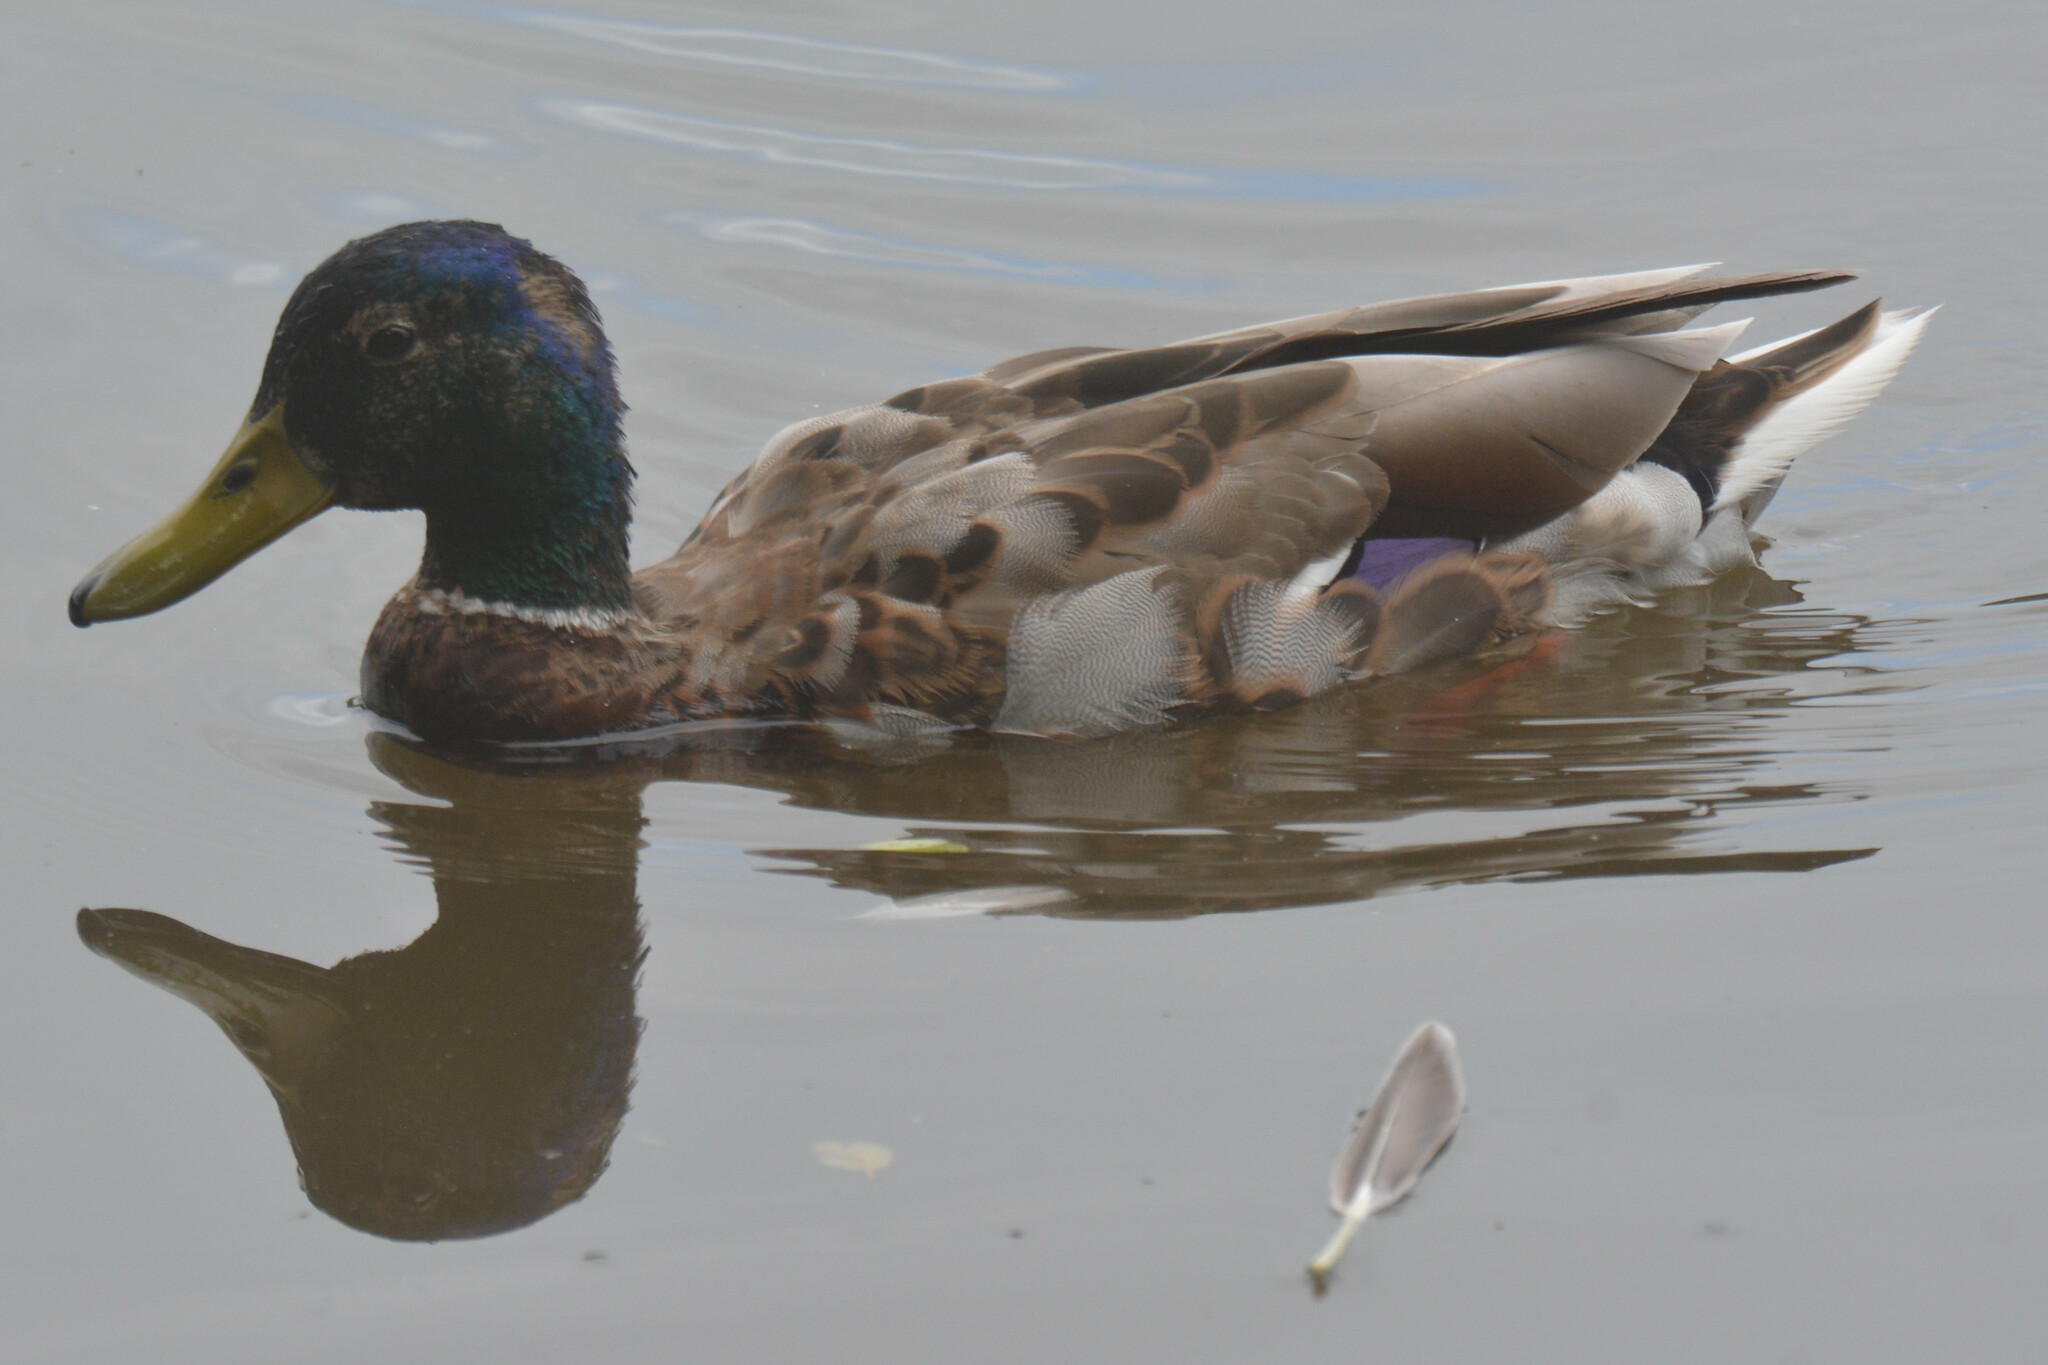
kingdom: Animalia
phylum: Chordata
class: Aves
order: Anseriformes
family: Anatidae
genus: Anas
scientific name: Anas platyrhynchos
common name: Mallard
